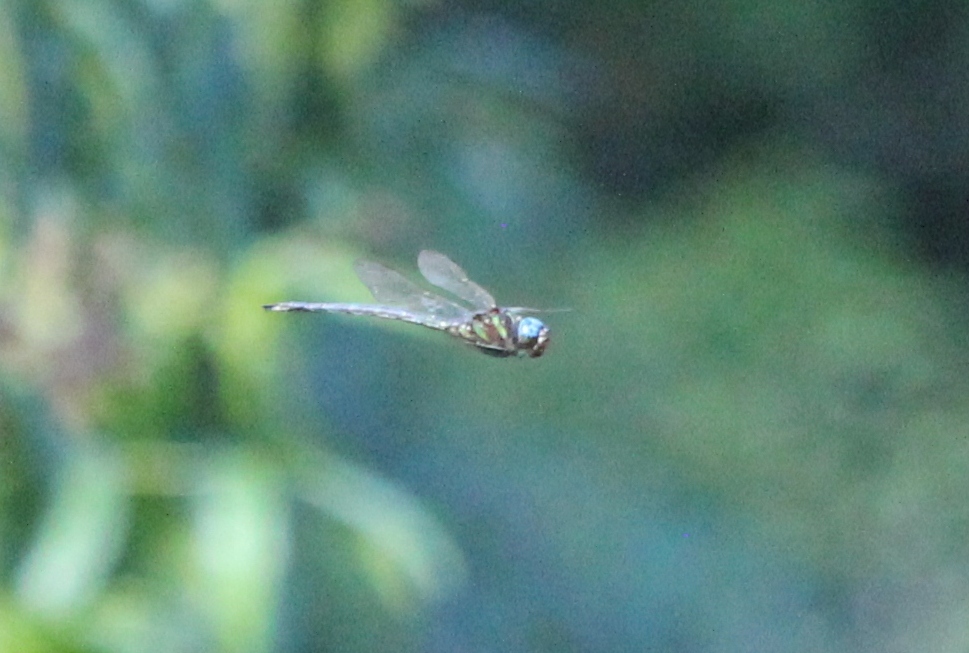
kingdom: Animalia
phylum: Arthropoda
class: Insecta
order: Odonata
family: Aeshnidae
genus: Epiaeschna
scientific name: Epiaeschna heros
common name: Swamp darner
